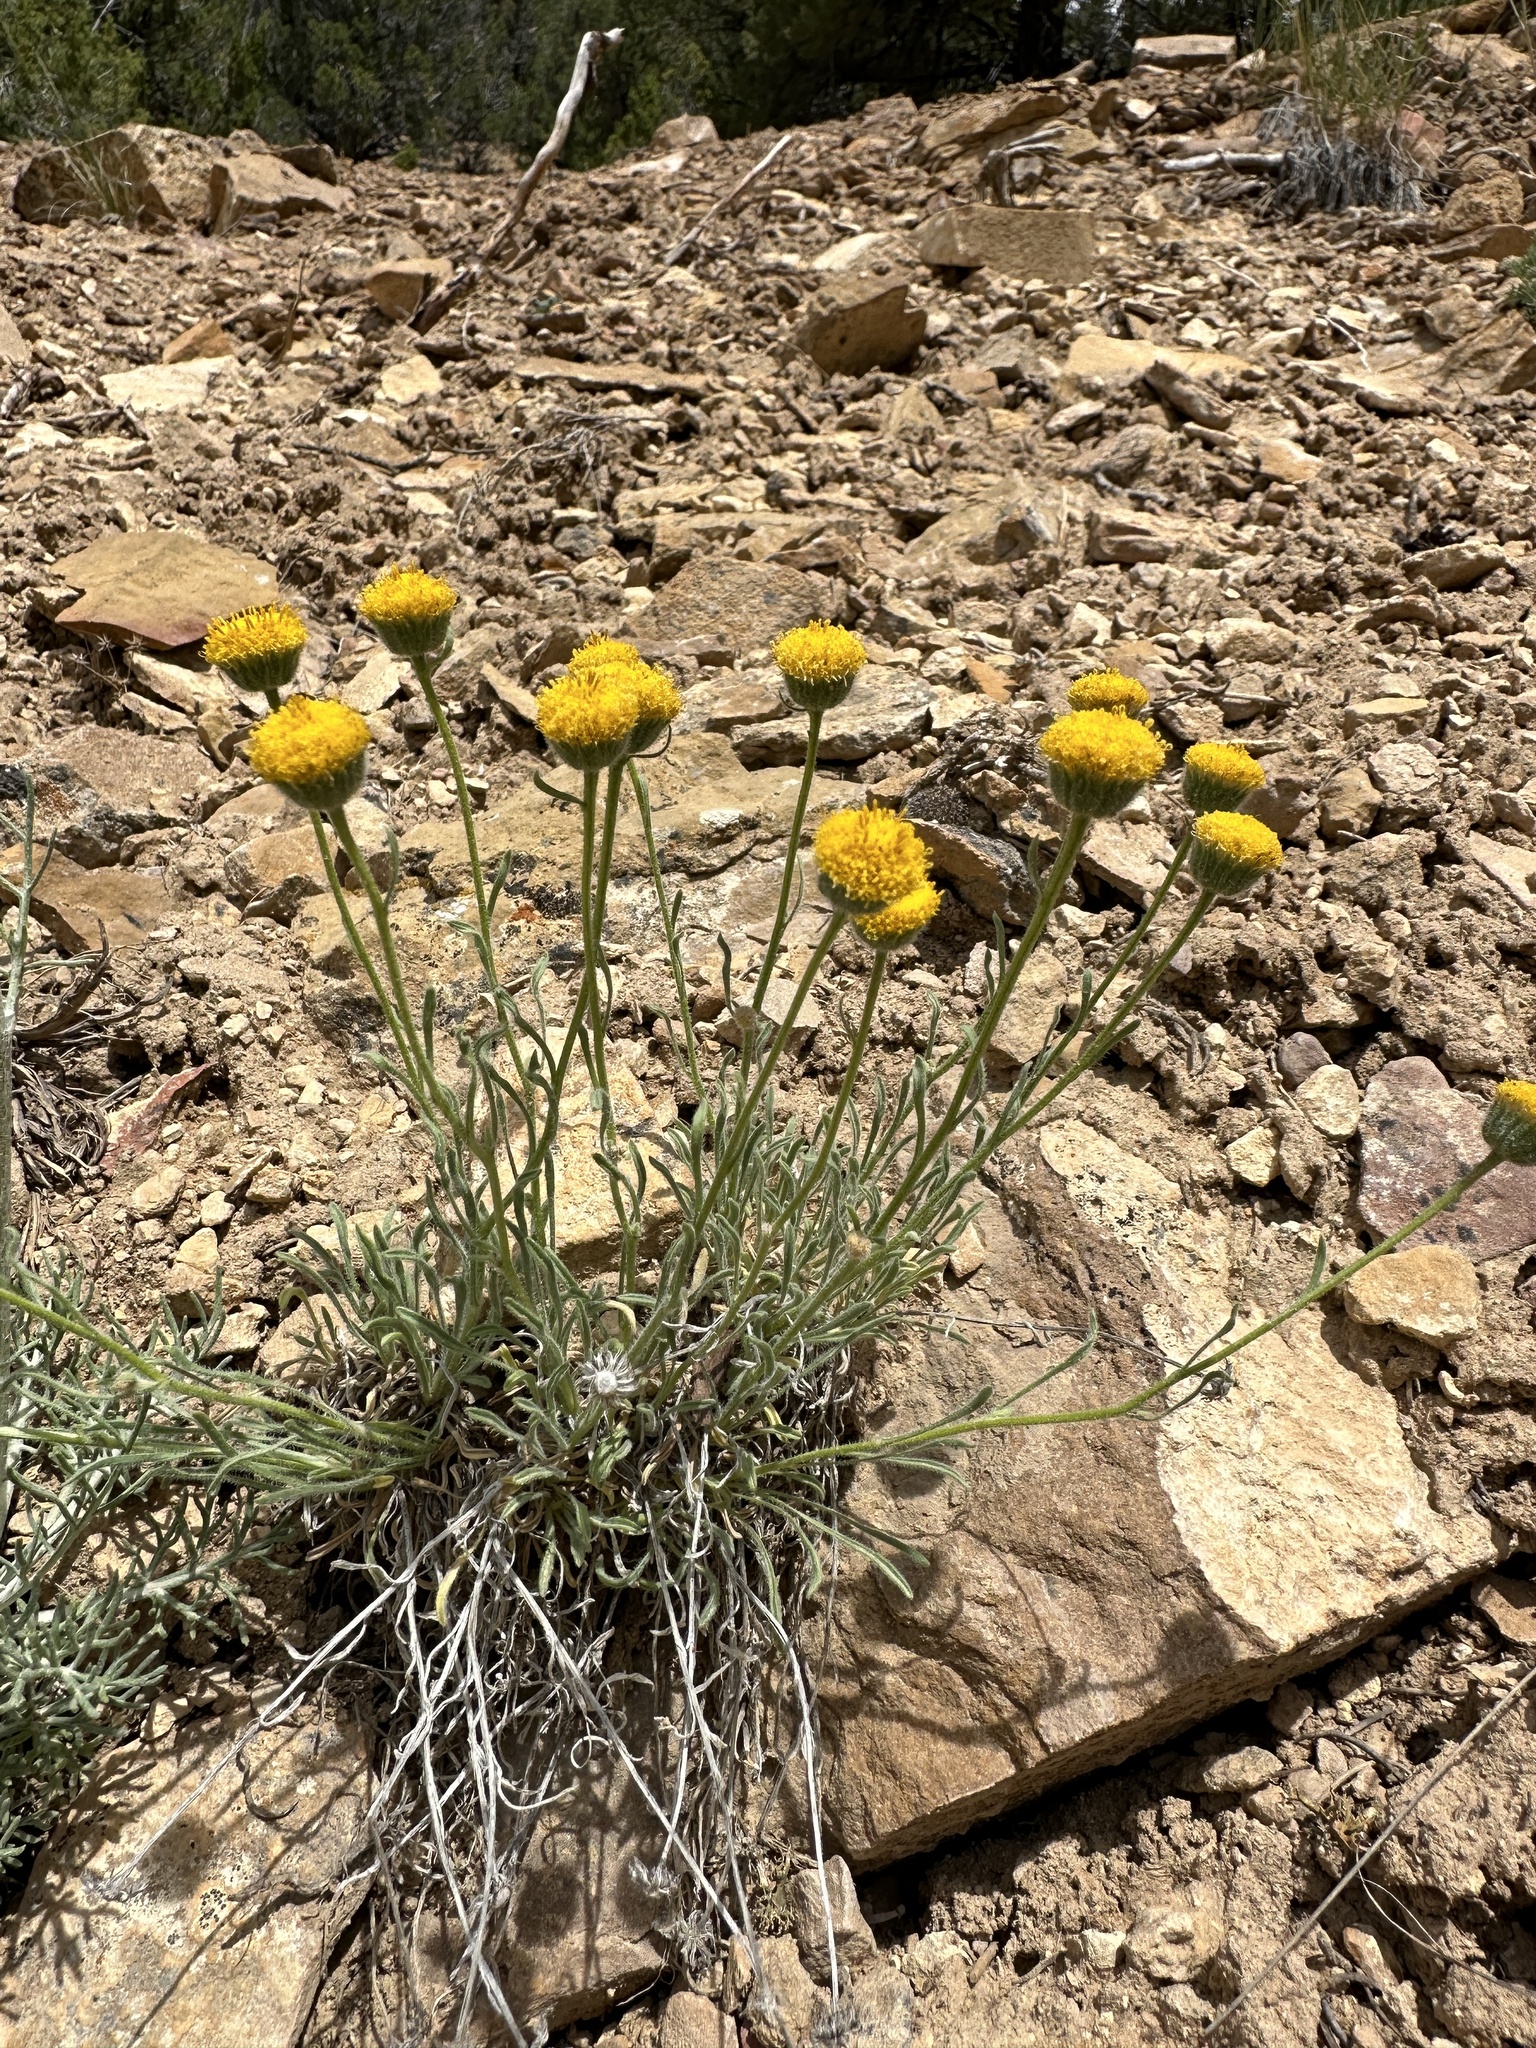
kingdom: Plantae
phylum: Tracheophyta
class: Magnoliopsida
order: Asterales
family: Asteraceae
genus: Erigeron
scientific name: Erigeron aphanactis
